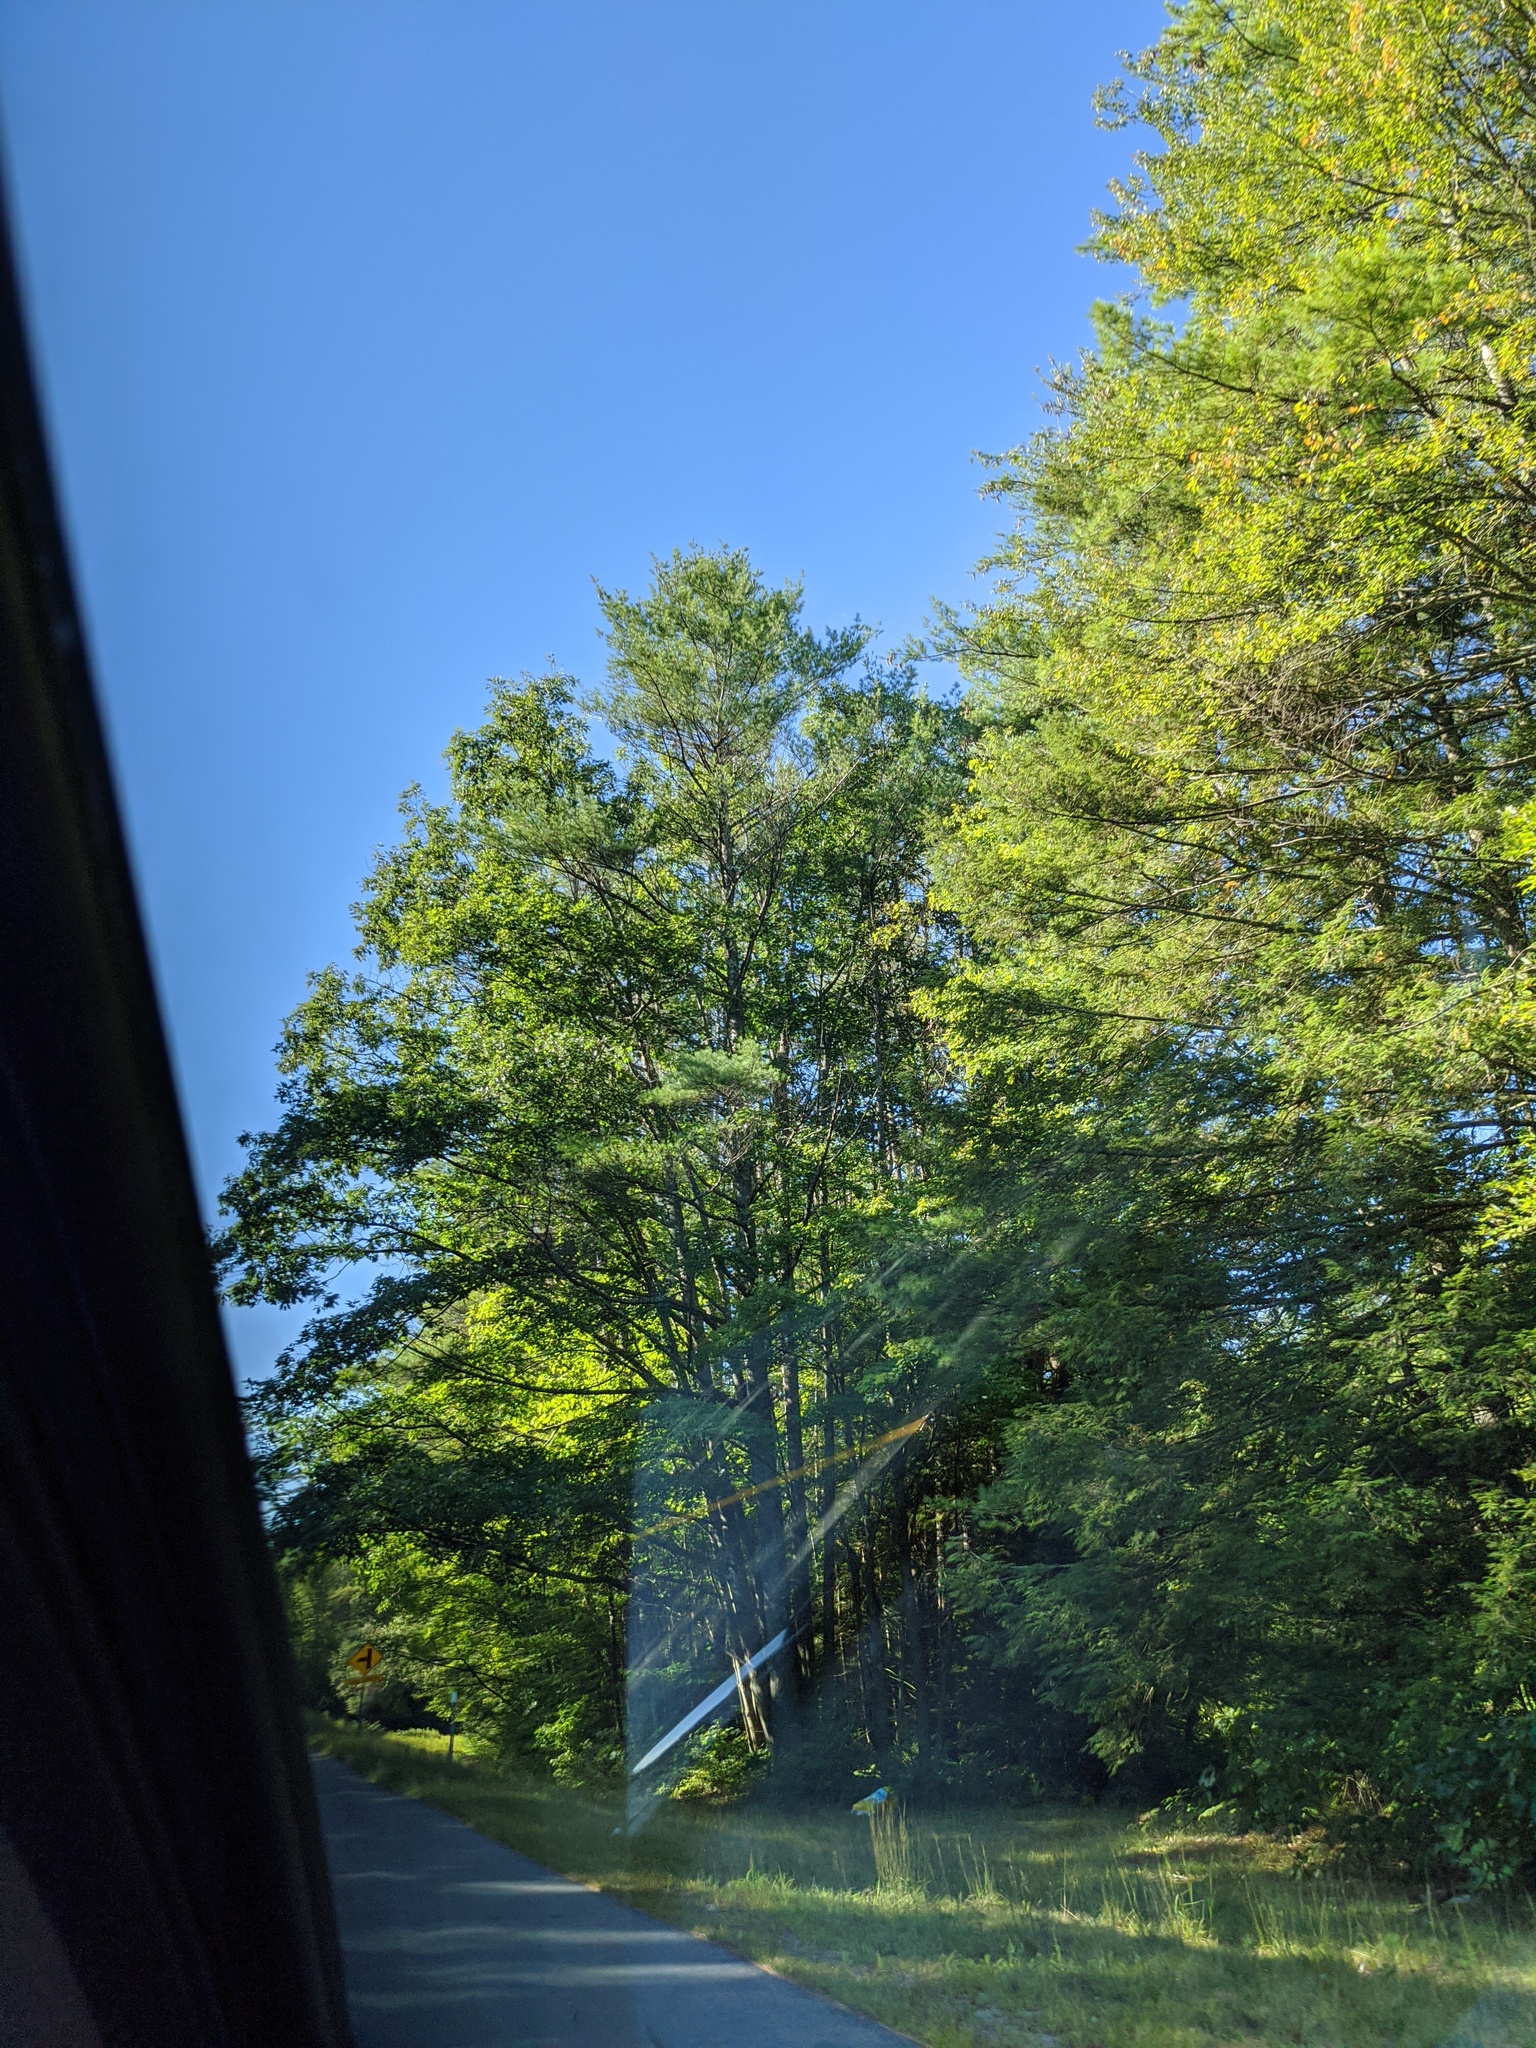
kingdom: Plantae
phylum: Tracheophyta
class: Pinopsida
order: Pinales
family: Pinaceae
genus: Pinus
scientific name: Pinus strobus
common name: Weymouth pine
